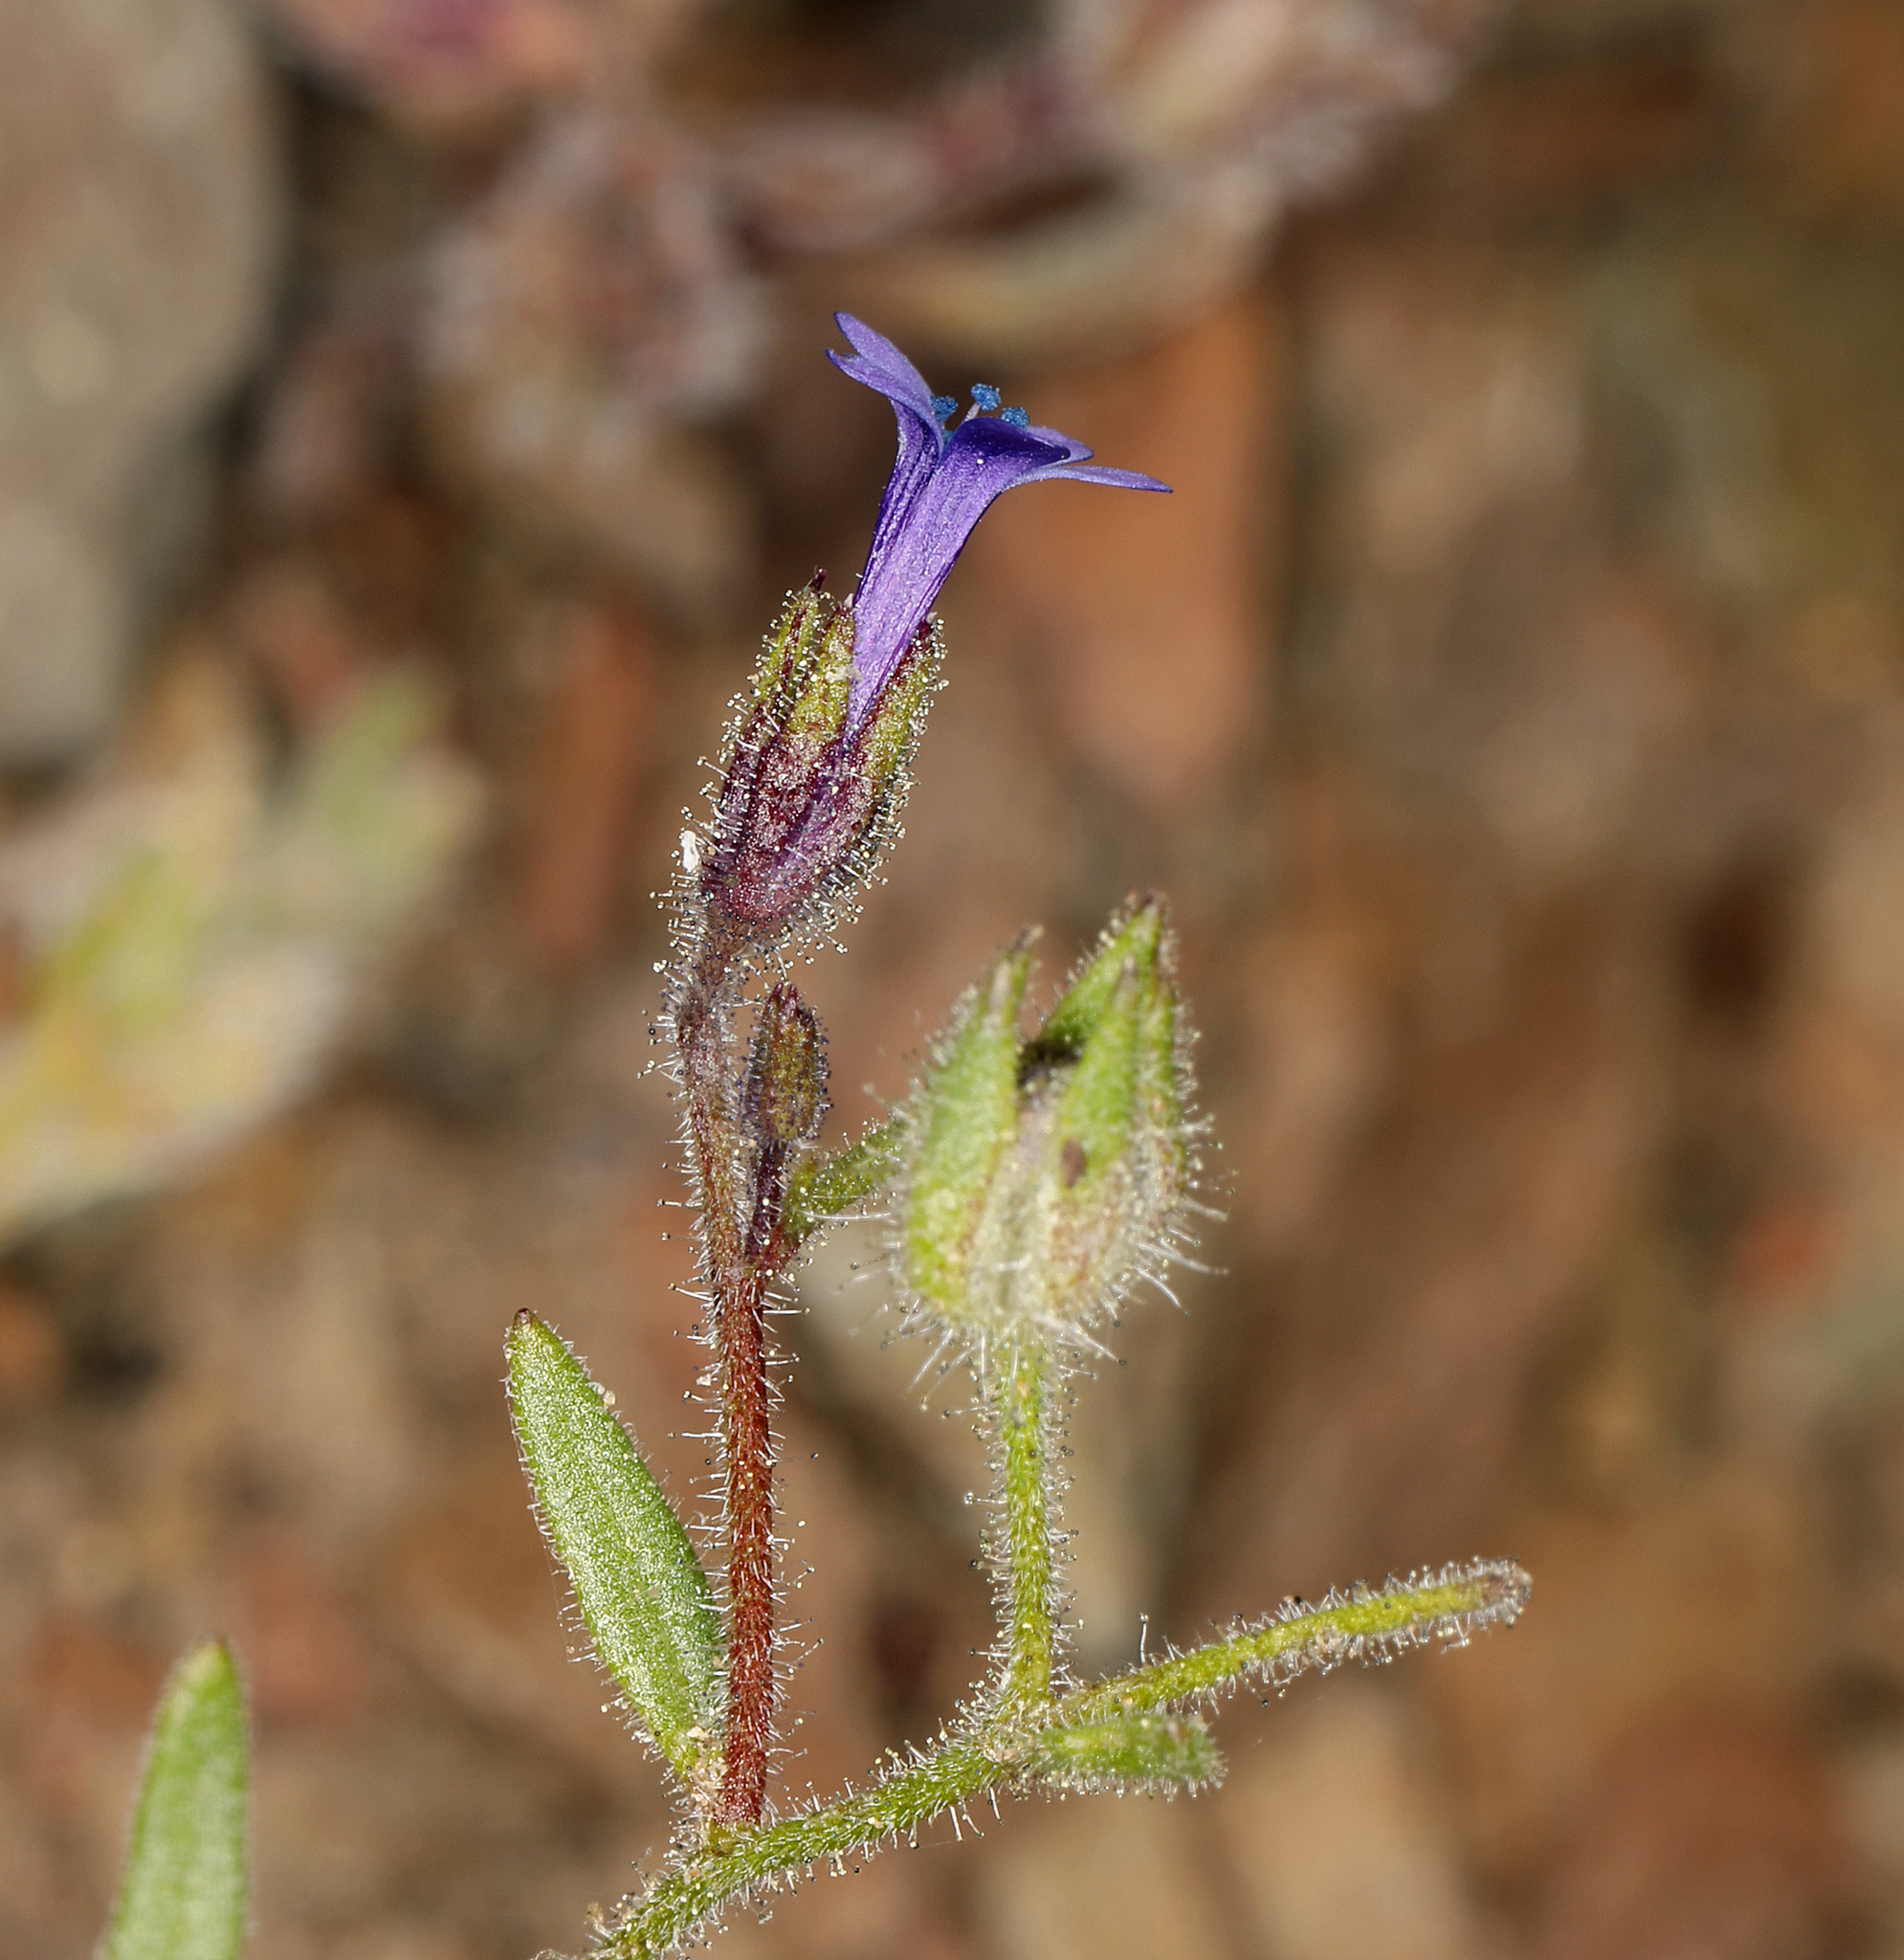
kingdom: Plantae
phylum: Tracheophyta
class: Magnoliopsida
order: Ericales
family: Polemoniaceae
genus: Allophyllum
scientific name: Allophyllum gilioides
